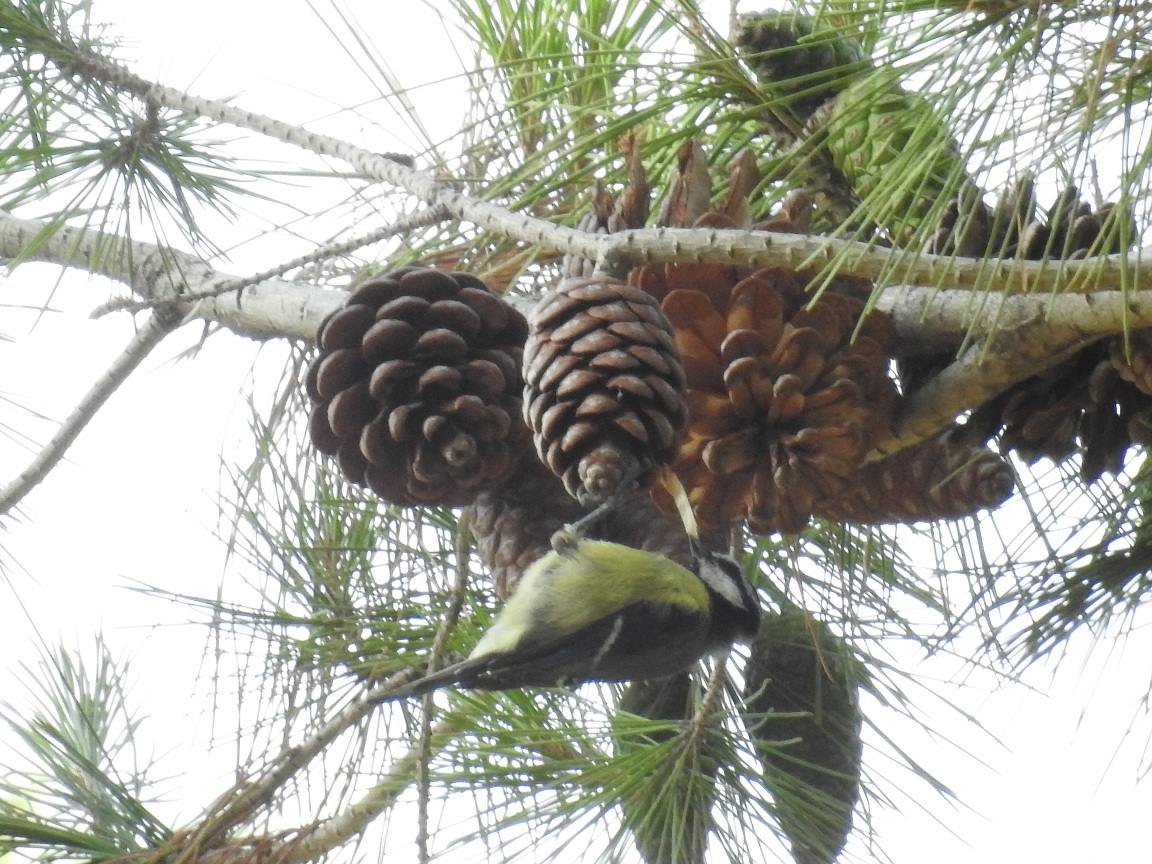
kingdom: Animalia
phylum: Chordata
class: Aves
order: Passeriformes
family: Paridae
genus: Cyanistes
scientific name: Cyanistes teneriffae
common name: African blue tit
